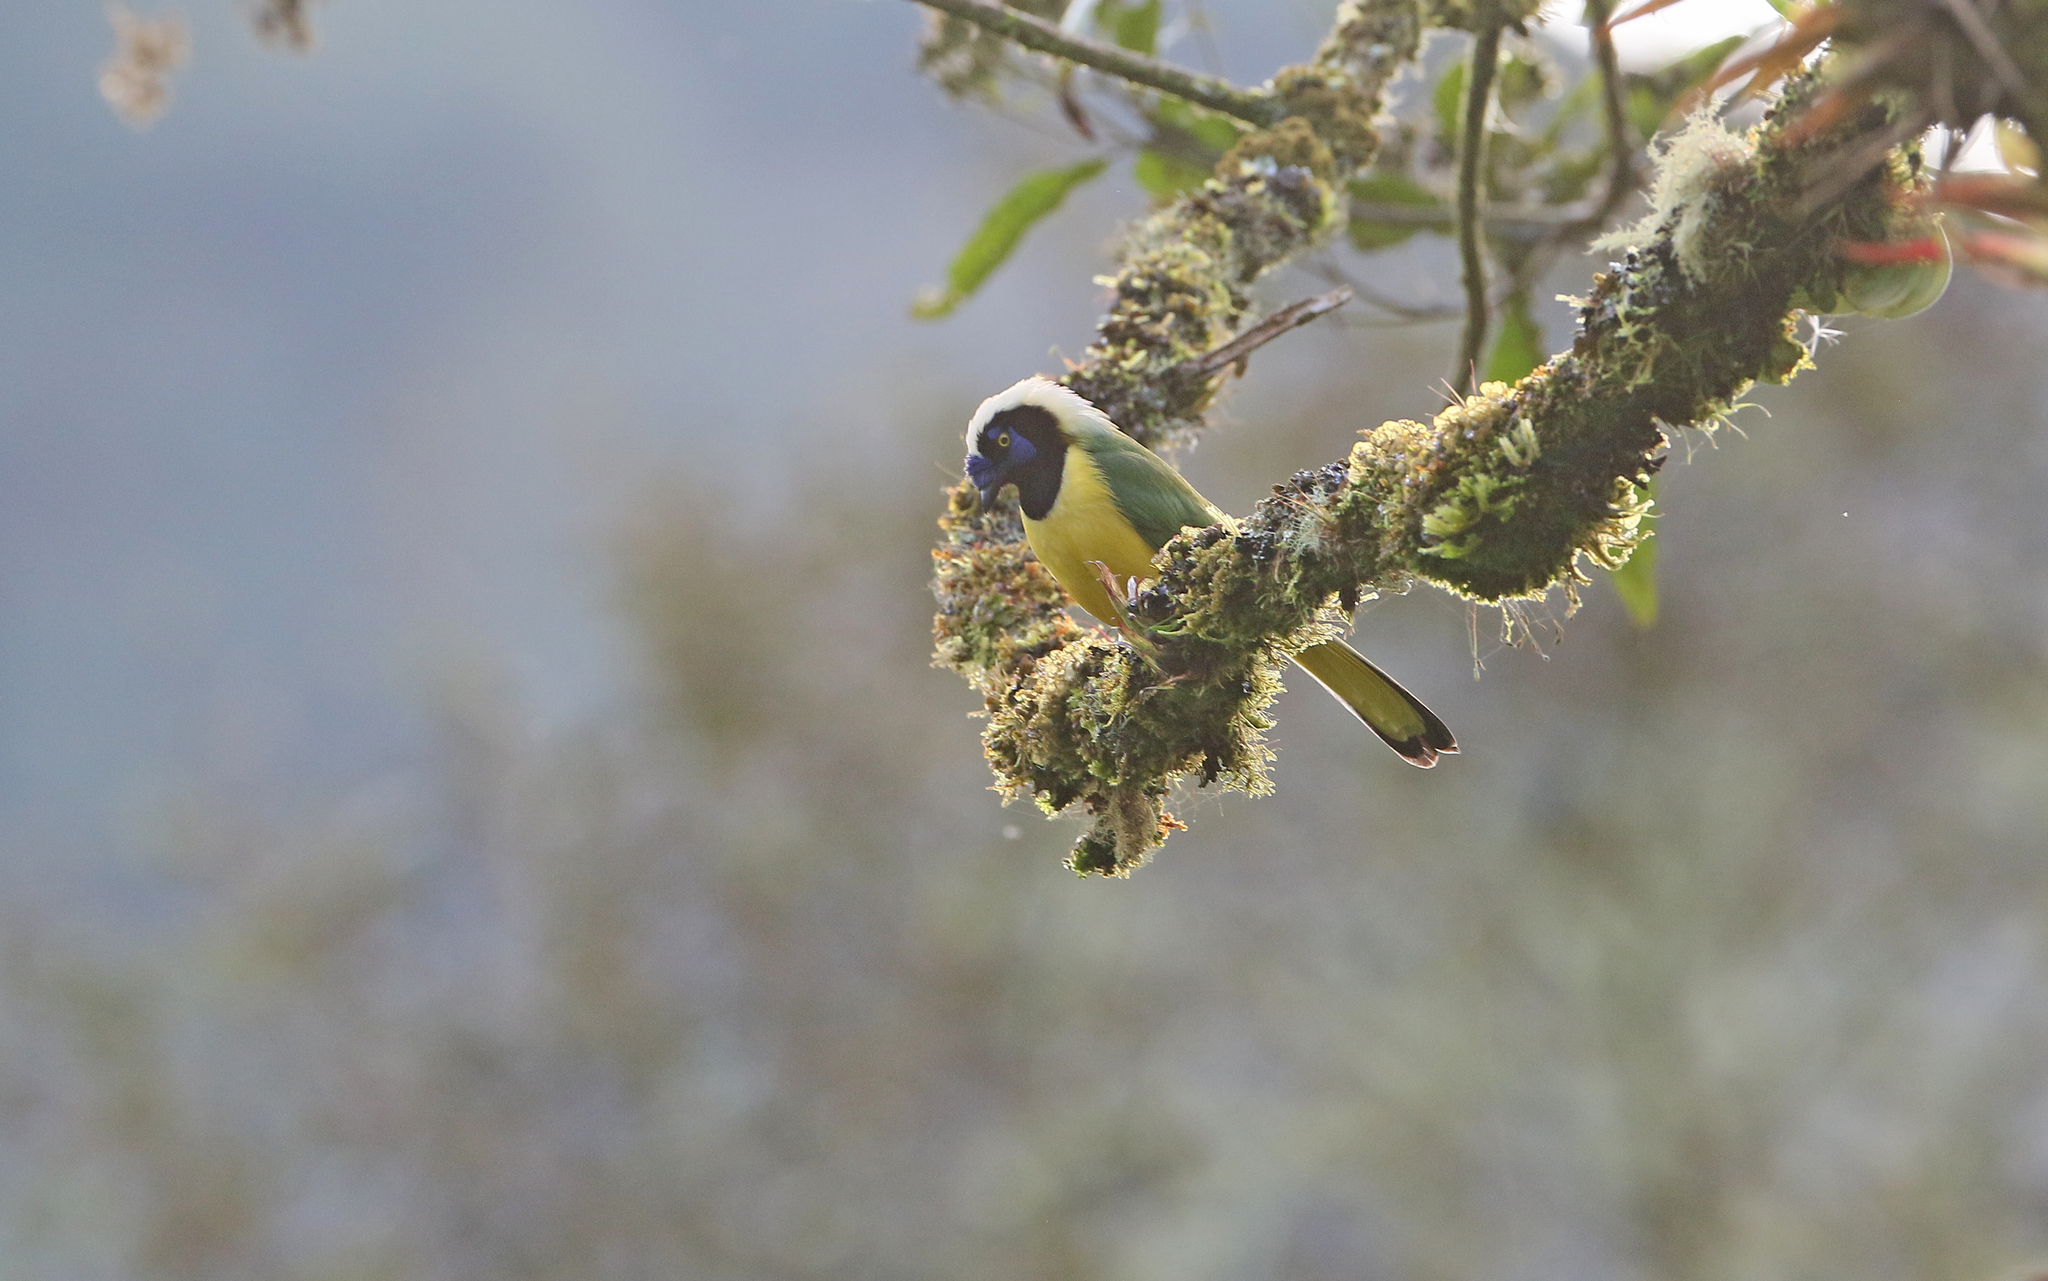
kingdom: Animalia
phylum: Chordata
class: Aves
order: Passeriformes
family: Corvidae
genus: Cyanocorax
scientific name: Cyanocorax yncas
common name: Green jay
